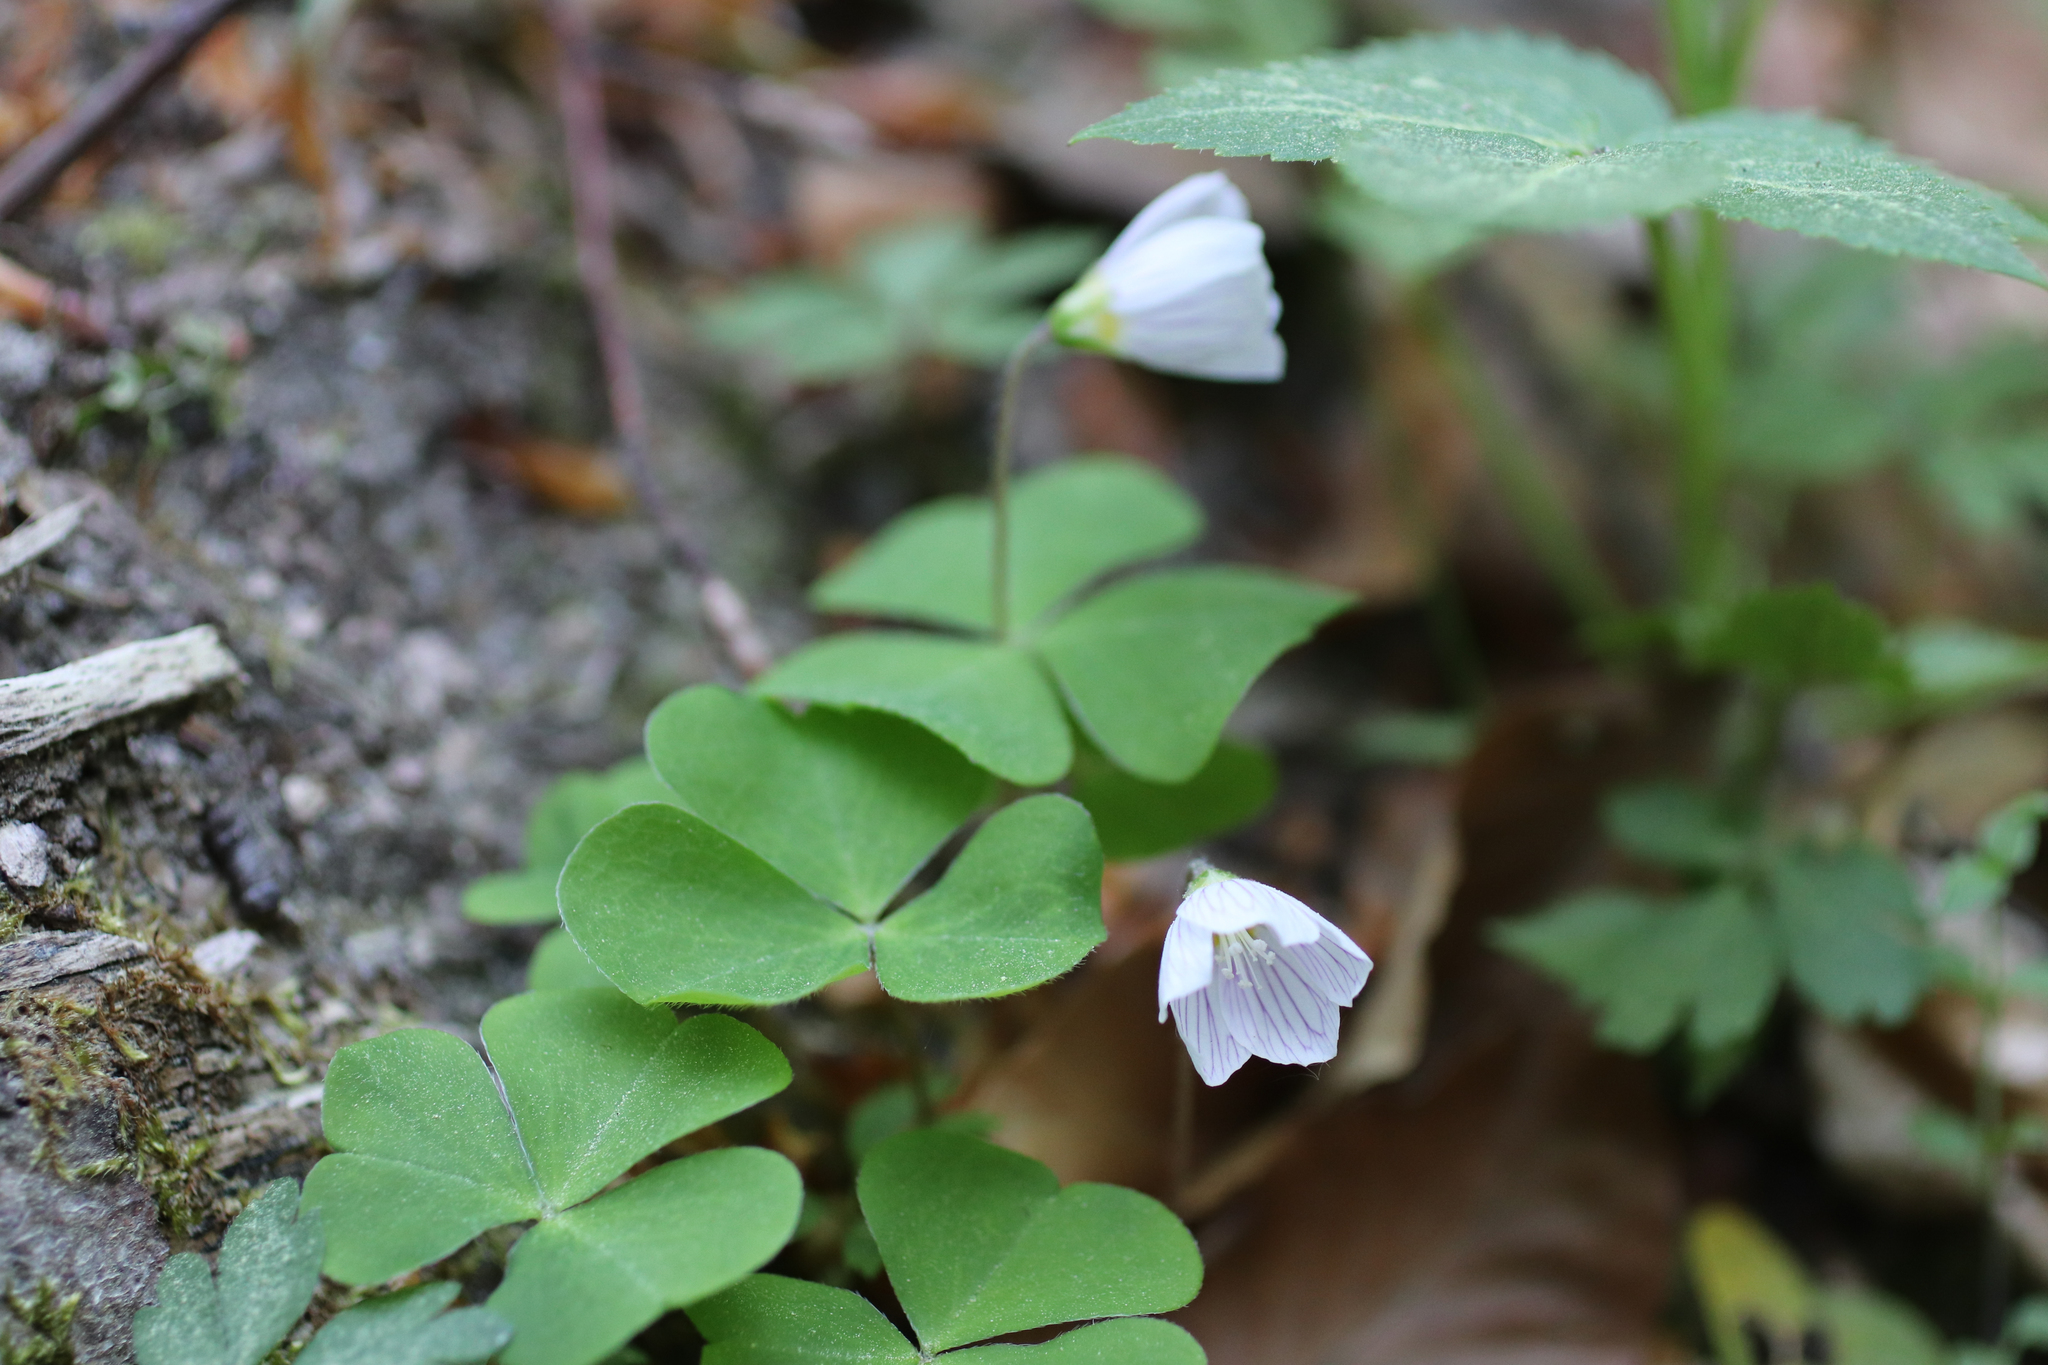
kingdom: Plantae
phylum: Tracheophyta
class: Magnoliopsida
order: Oxalidales
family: Oxalidaceae
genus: Oxalis
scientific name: Oxalis acetosella
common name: Wood-sorrel
